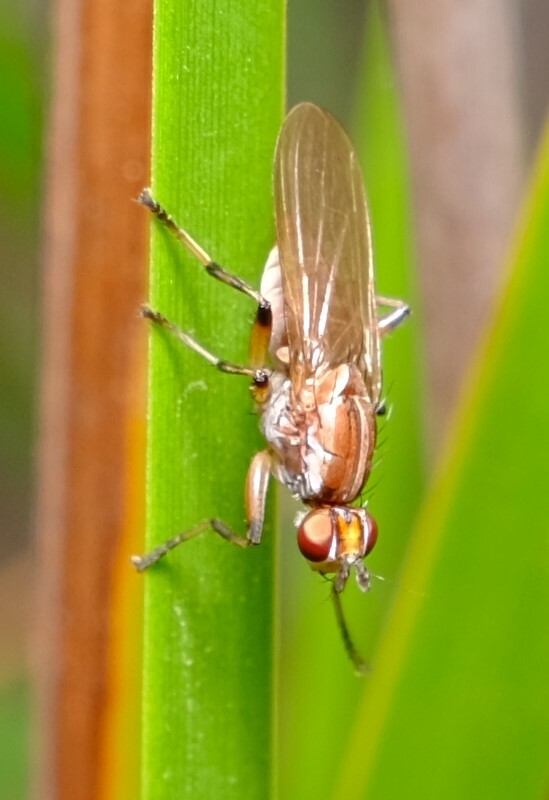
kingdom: Animalia
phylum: Arthropoda
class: Insecta
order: Diptera
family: Heleomyzidae
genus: Tapeigaster
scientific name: Tapeigaster paramonovi
